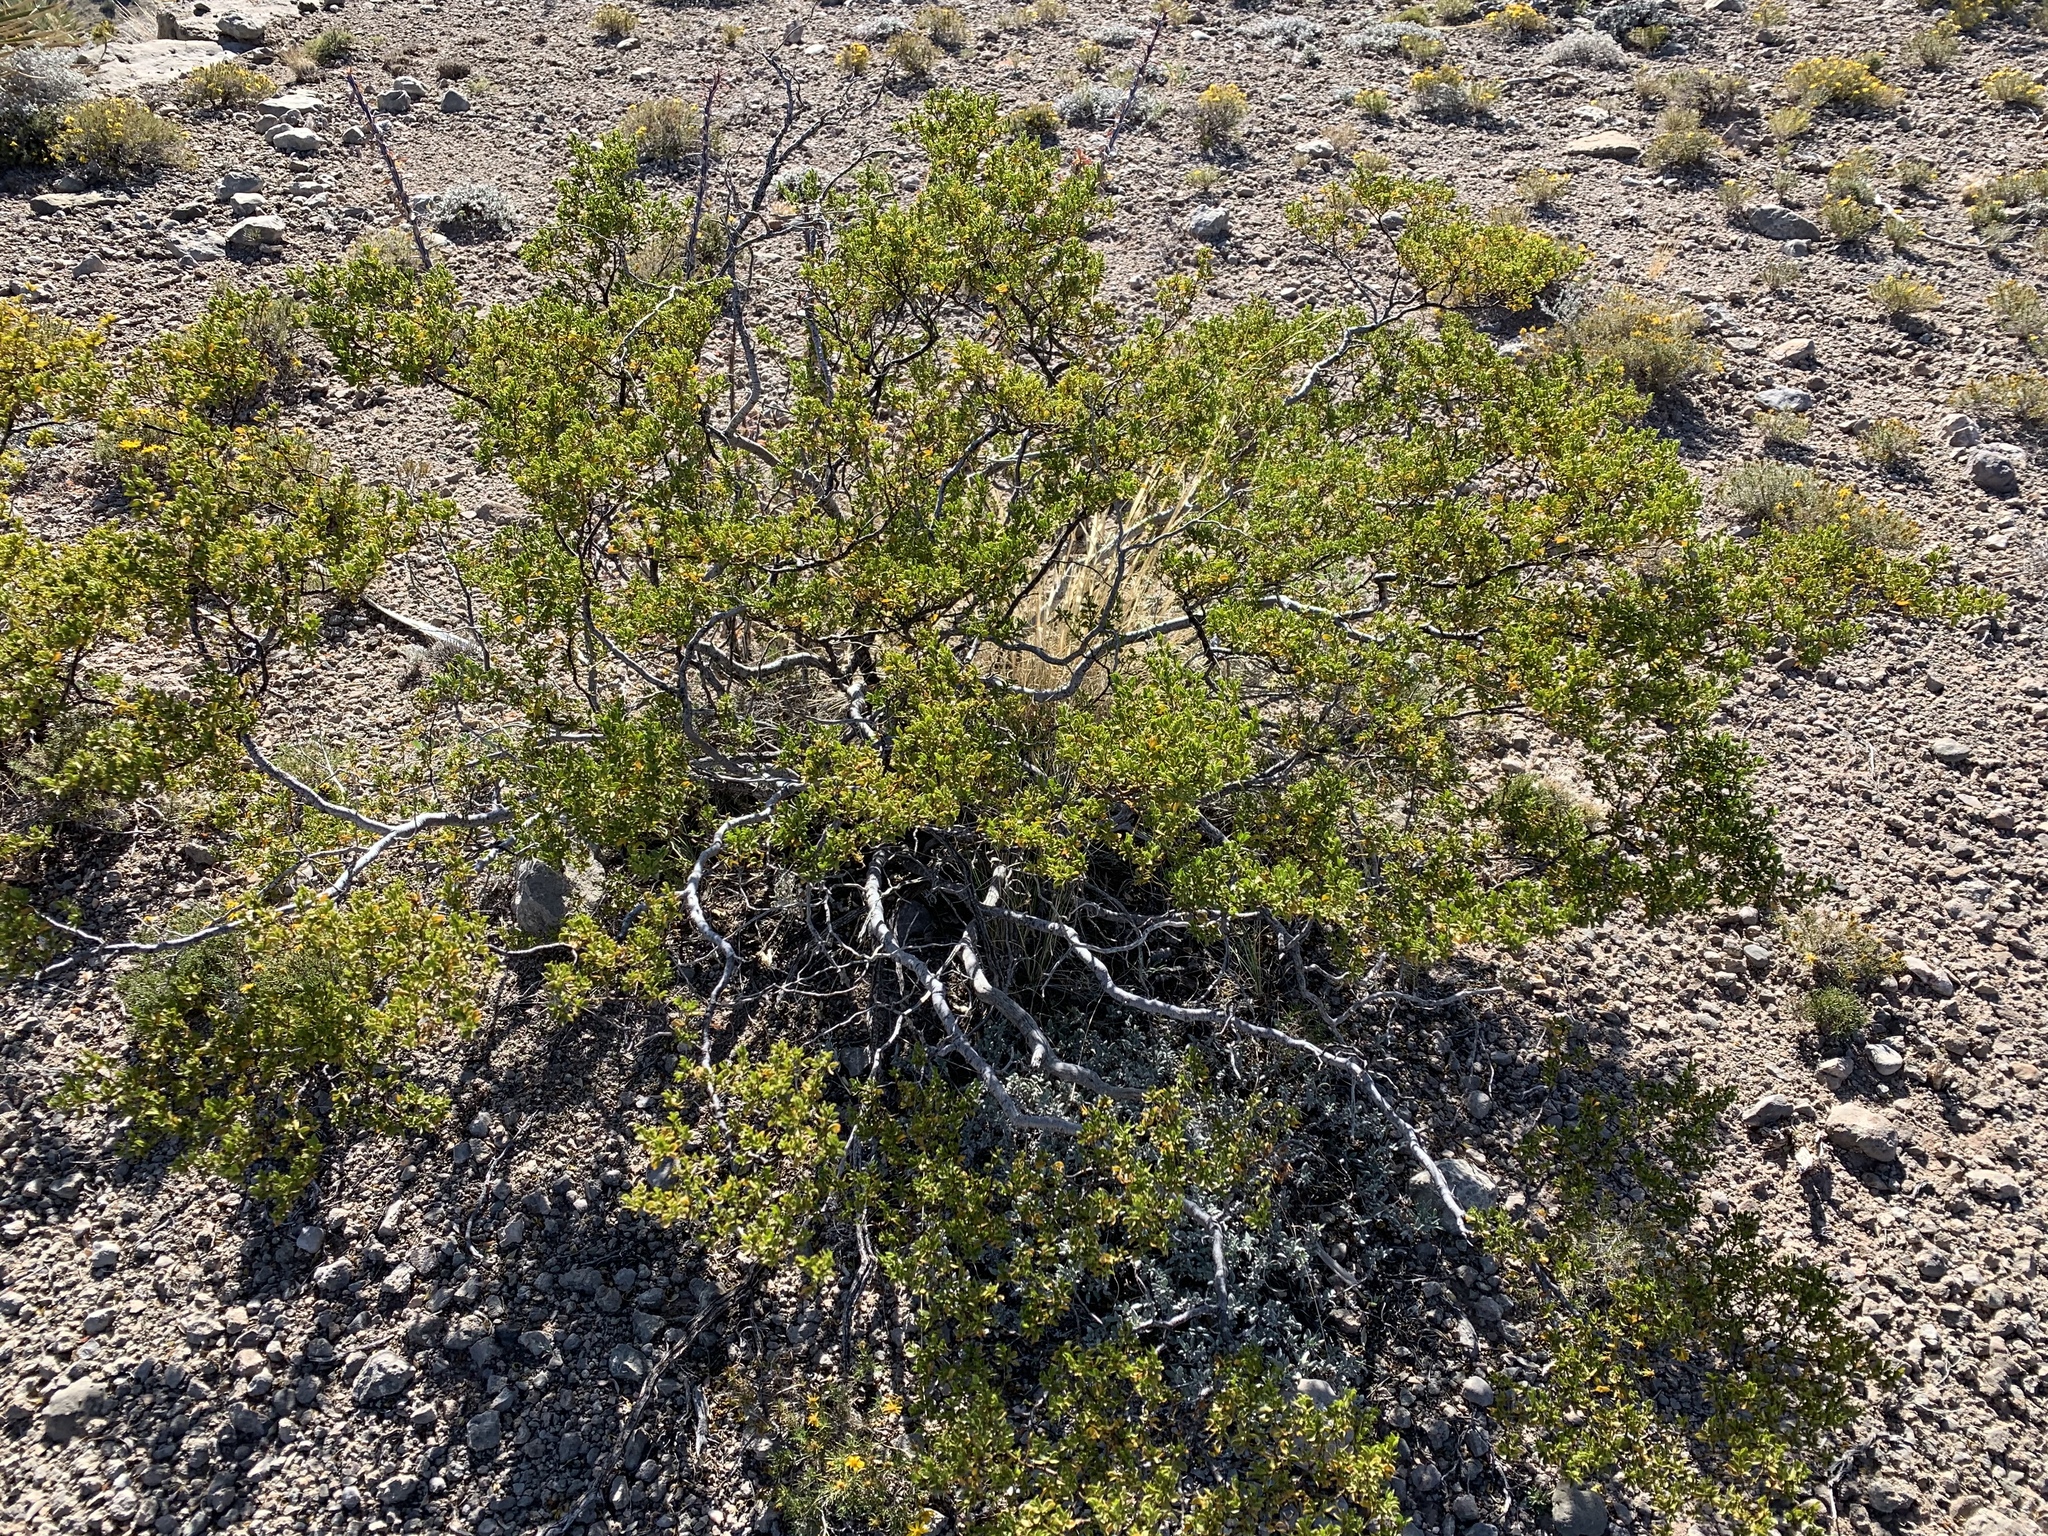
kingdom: Plantae
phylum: Tracheophyta
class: Magnoliopsida
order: Zygophyllales
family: Zygophyllaceae
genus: Larrea
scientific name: Larrea tridentata
